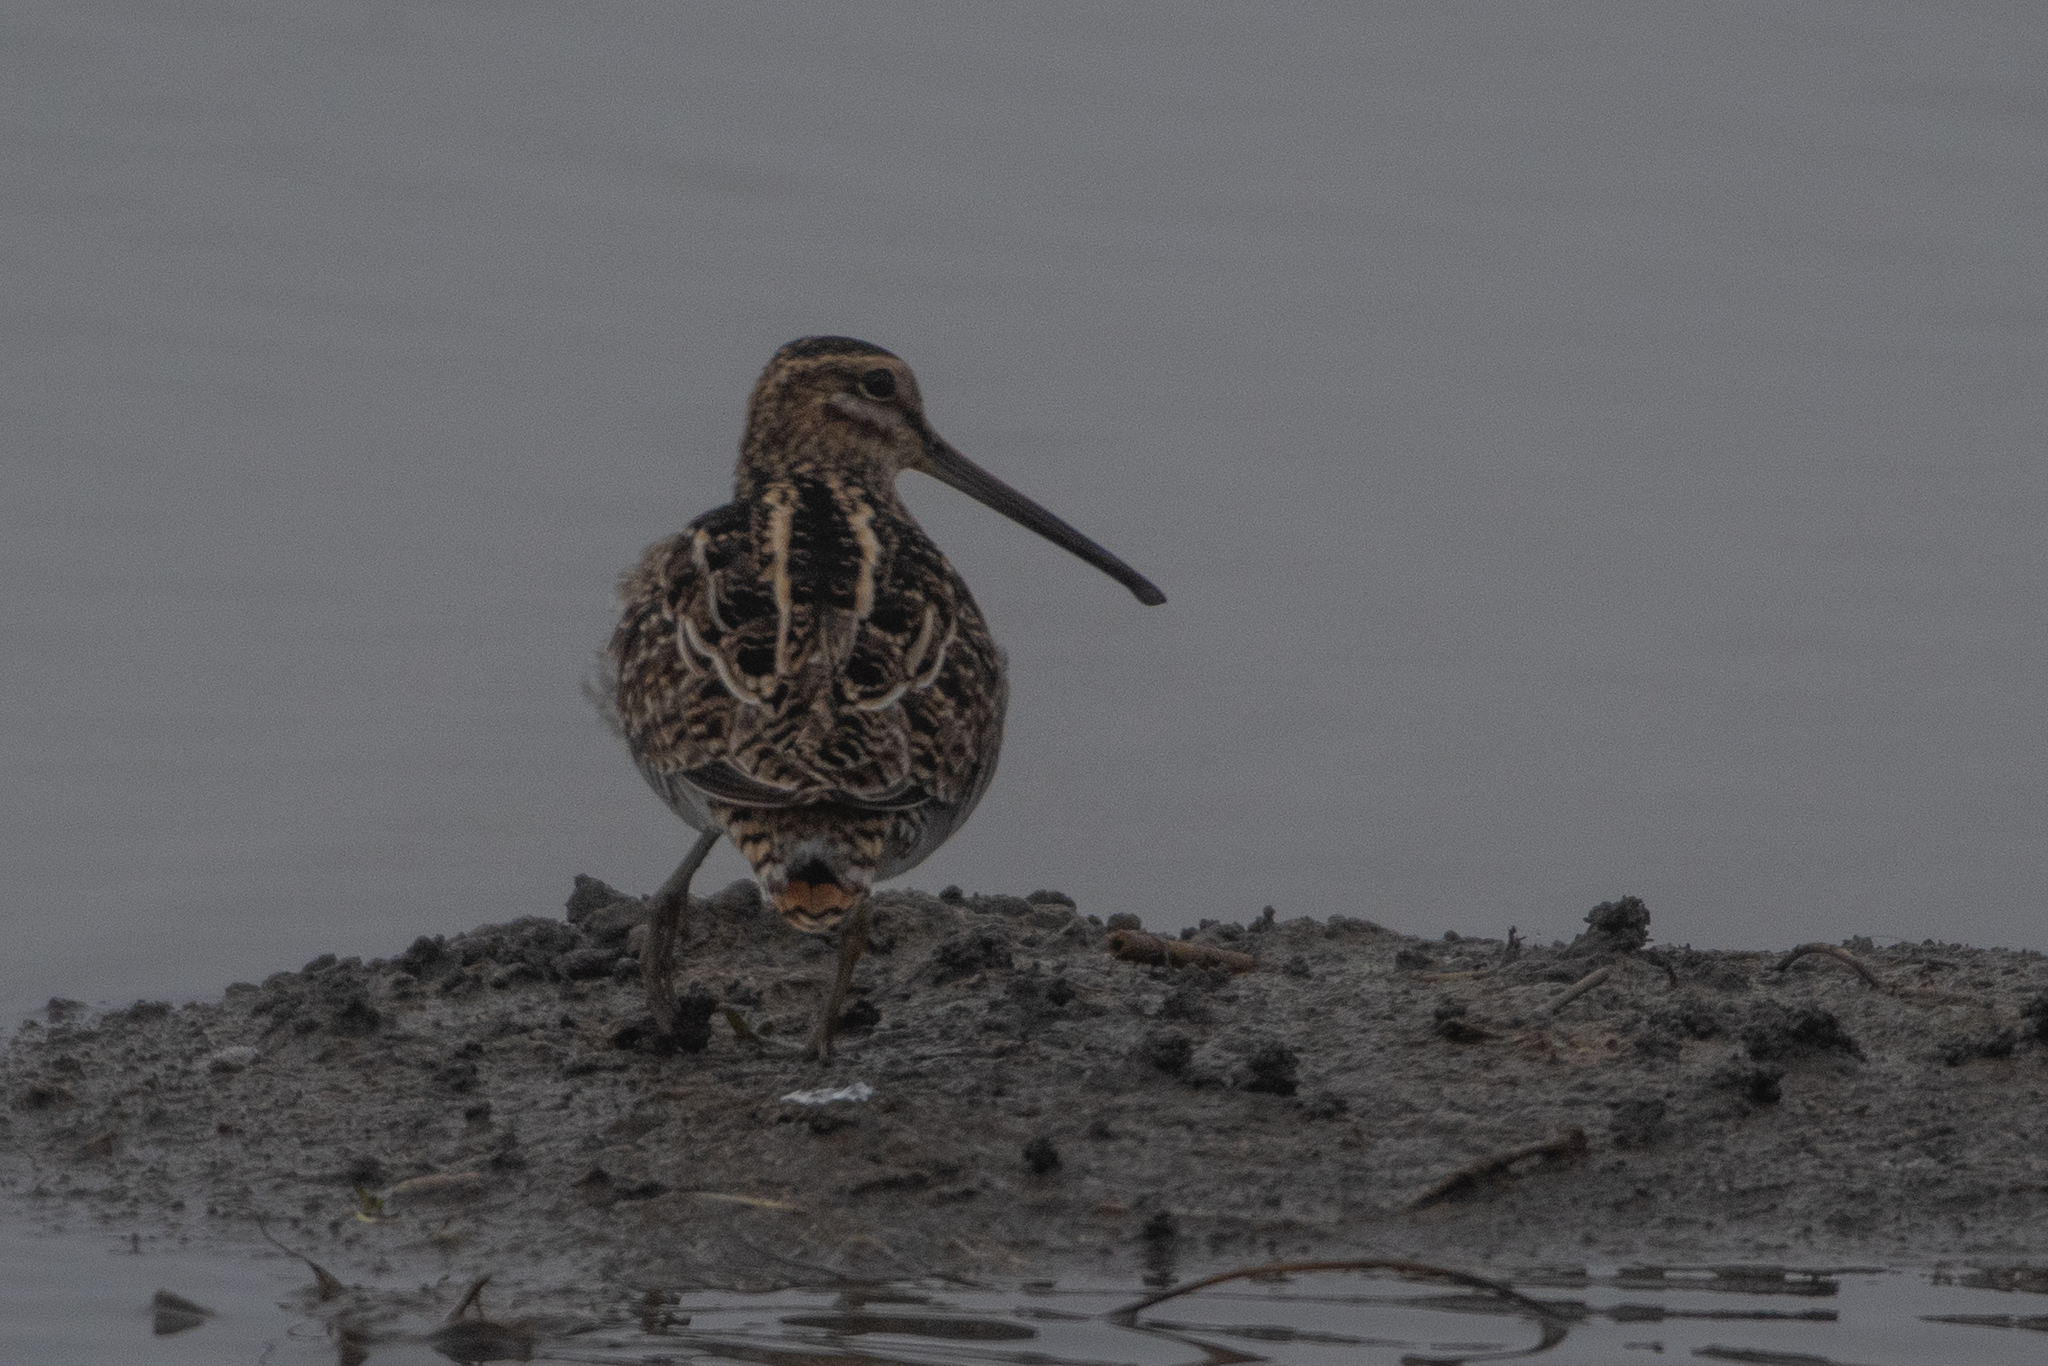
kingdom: Animalia
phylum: Chordata
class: Aves
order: Charadriiformes
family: Scolopacidae
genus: Gallinago
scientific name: Gallinago delicata
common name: Wilson's snipe
